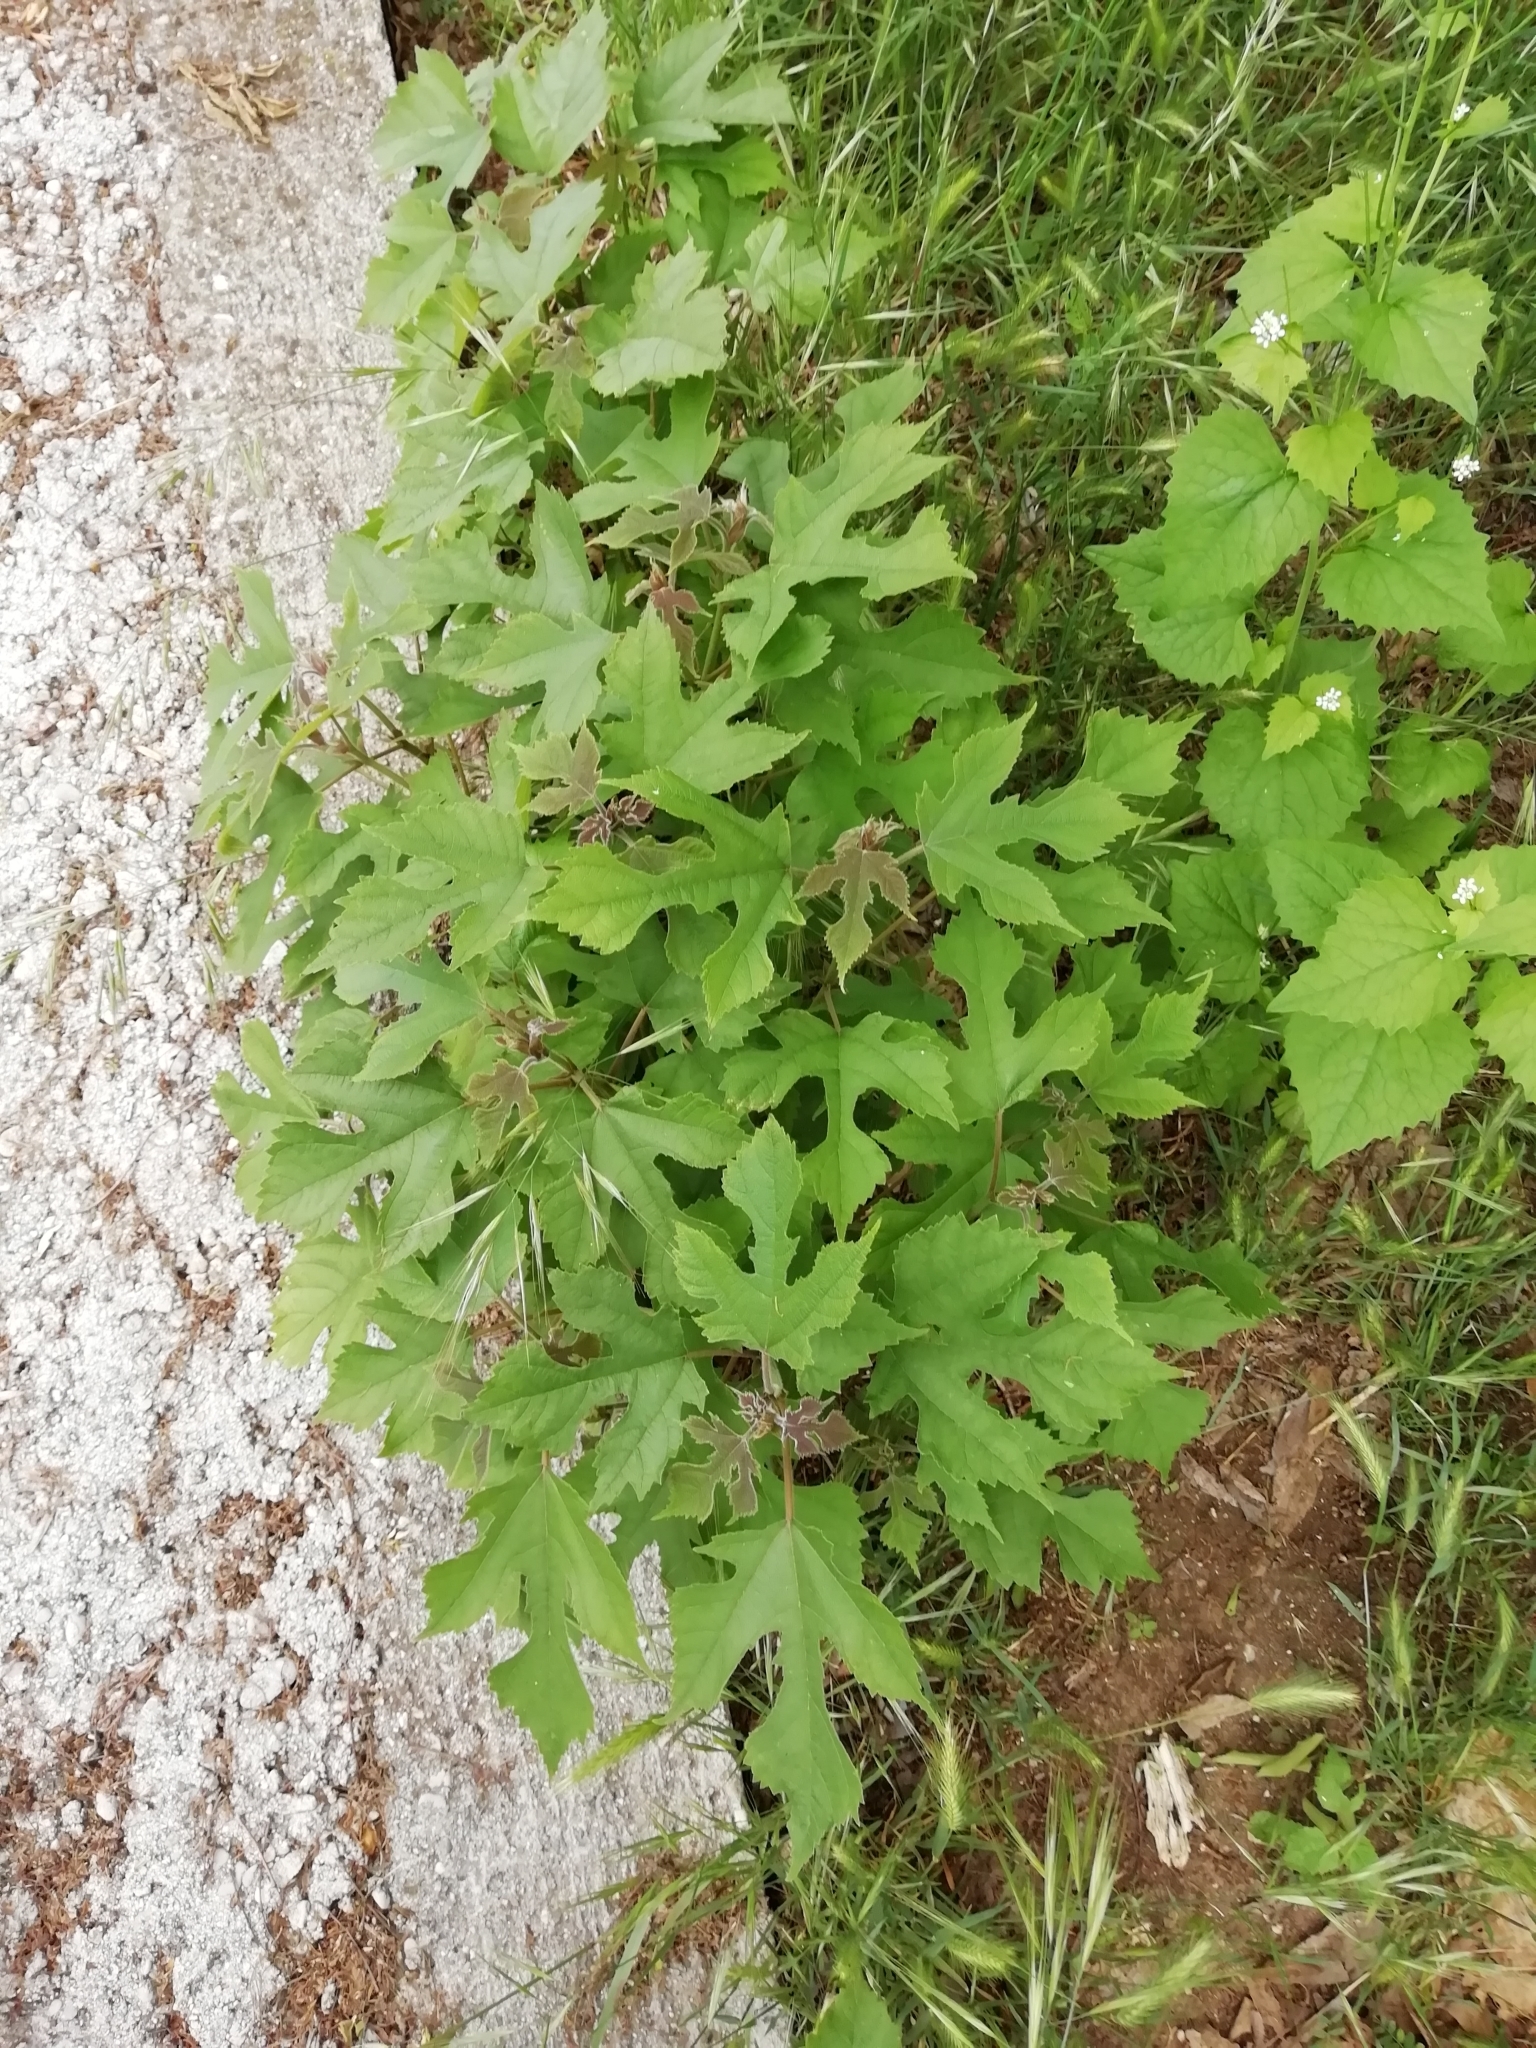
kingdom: Plantae
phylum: Tracheophyta
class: Magnoliopsida
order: Rosales
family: Moraceae
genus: Broussonetia
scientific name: Broussonetia papyrifera
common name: Paper mulberry
